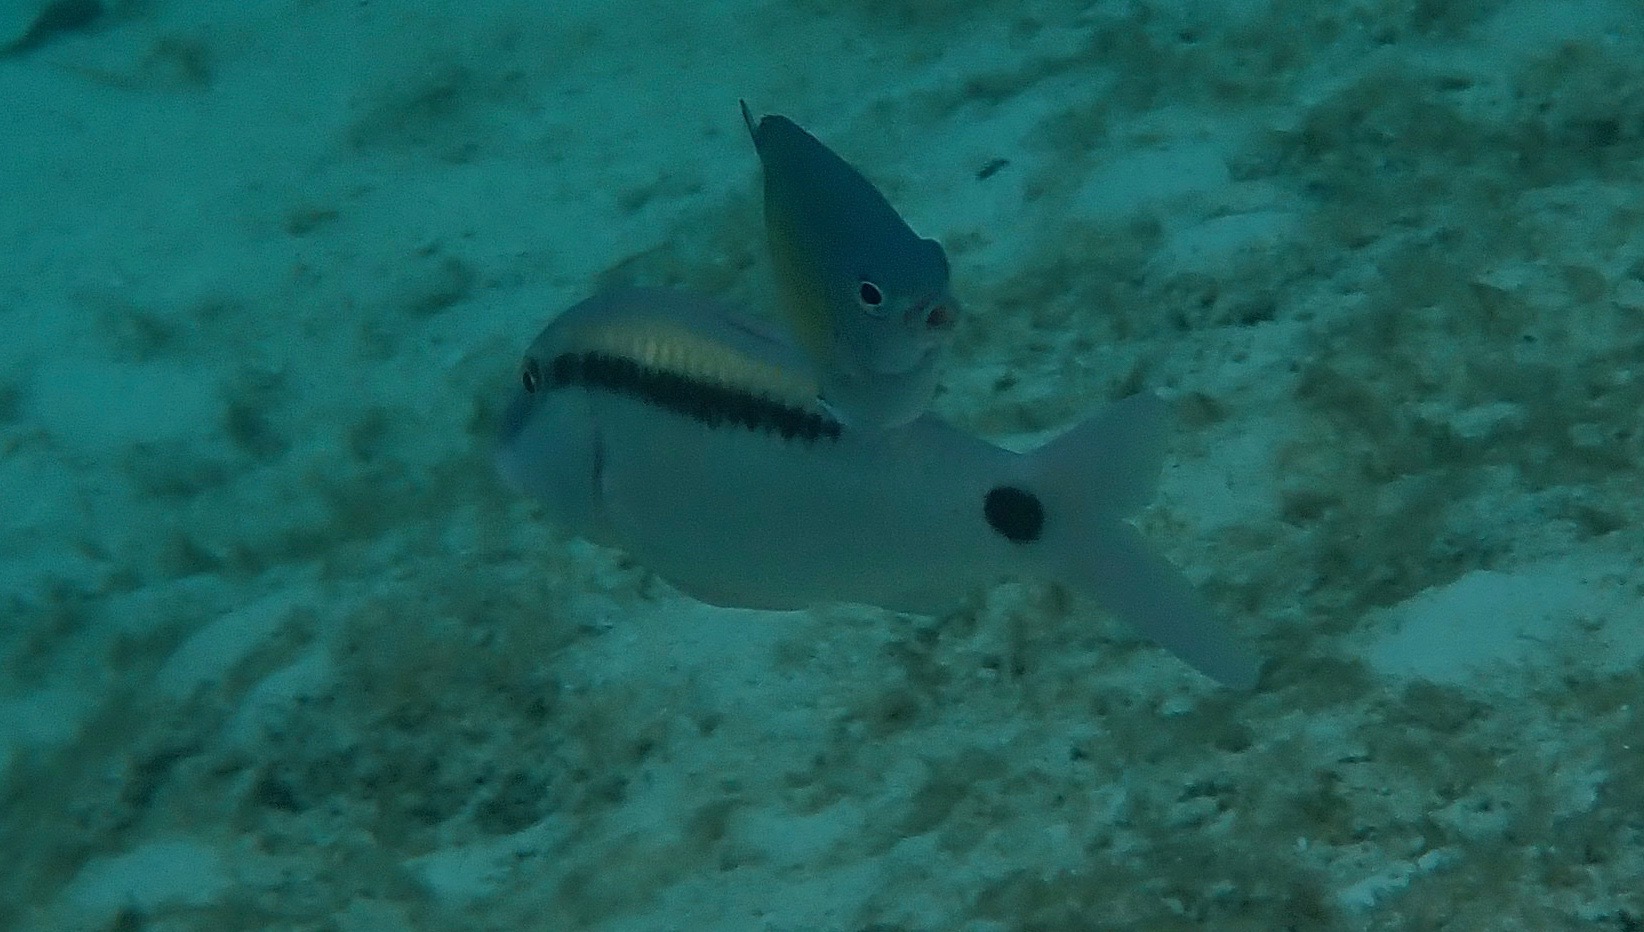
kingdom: Animalia
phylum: Chordata
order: Perciformes
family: Mullidae
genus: Parupeneus
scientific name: Parupeneus barberinus
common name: Dash-and-dot goatfish
